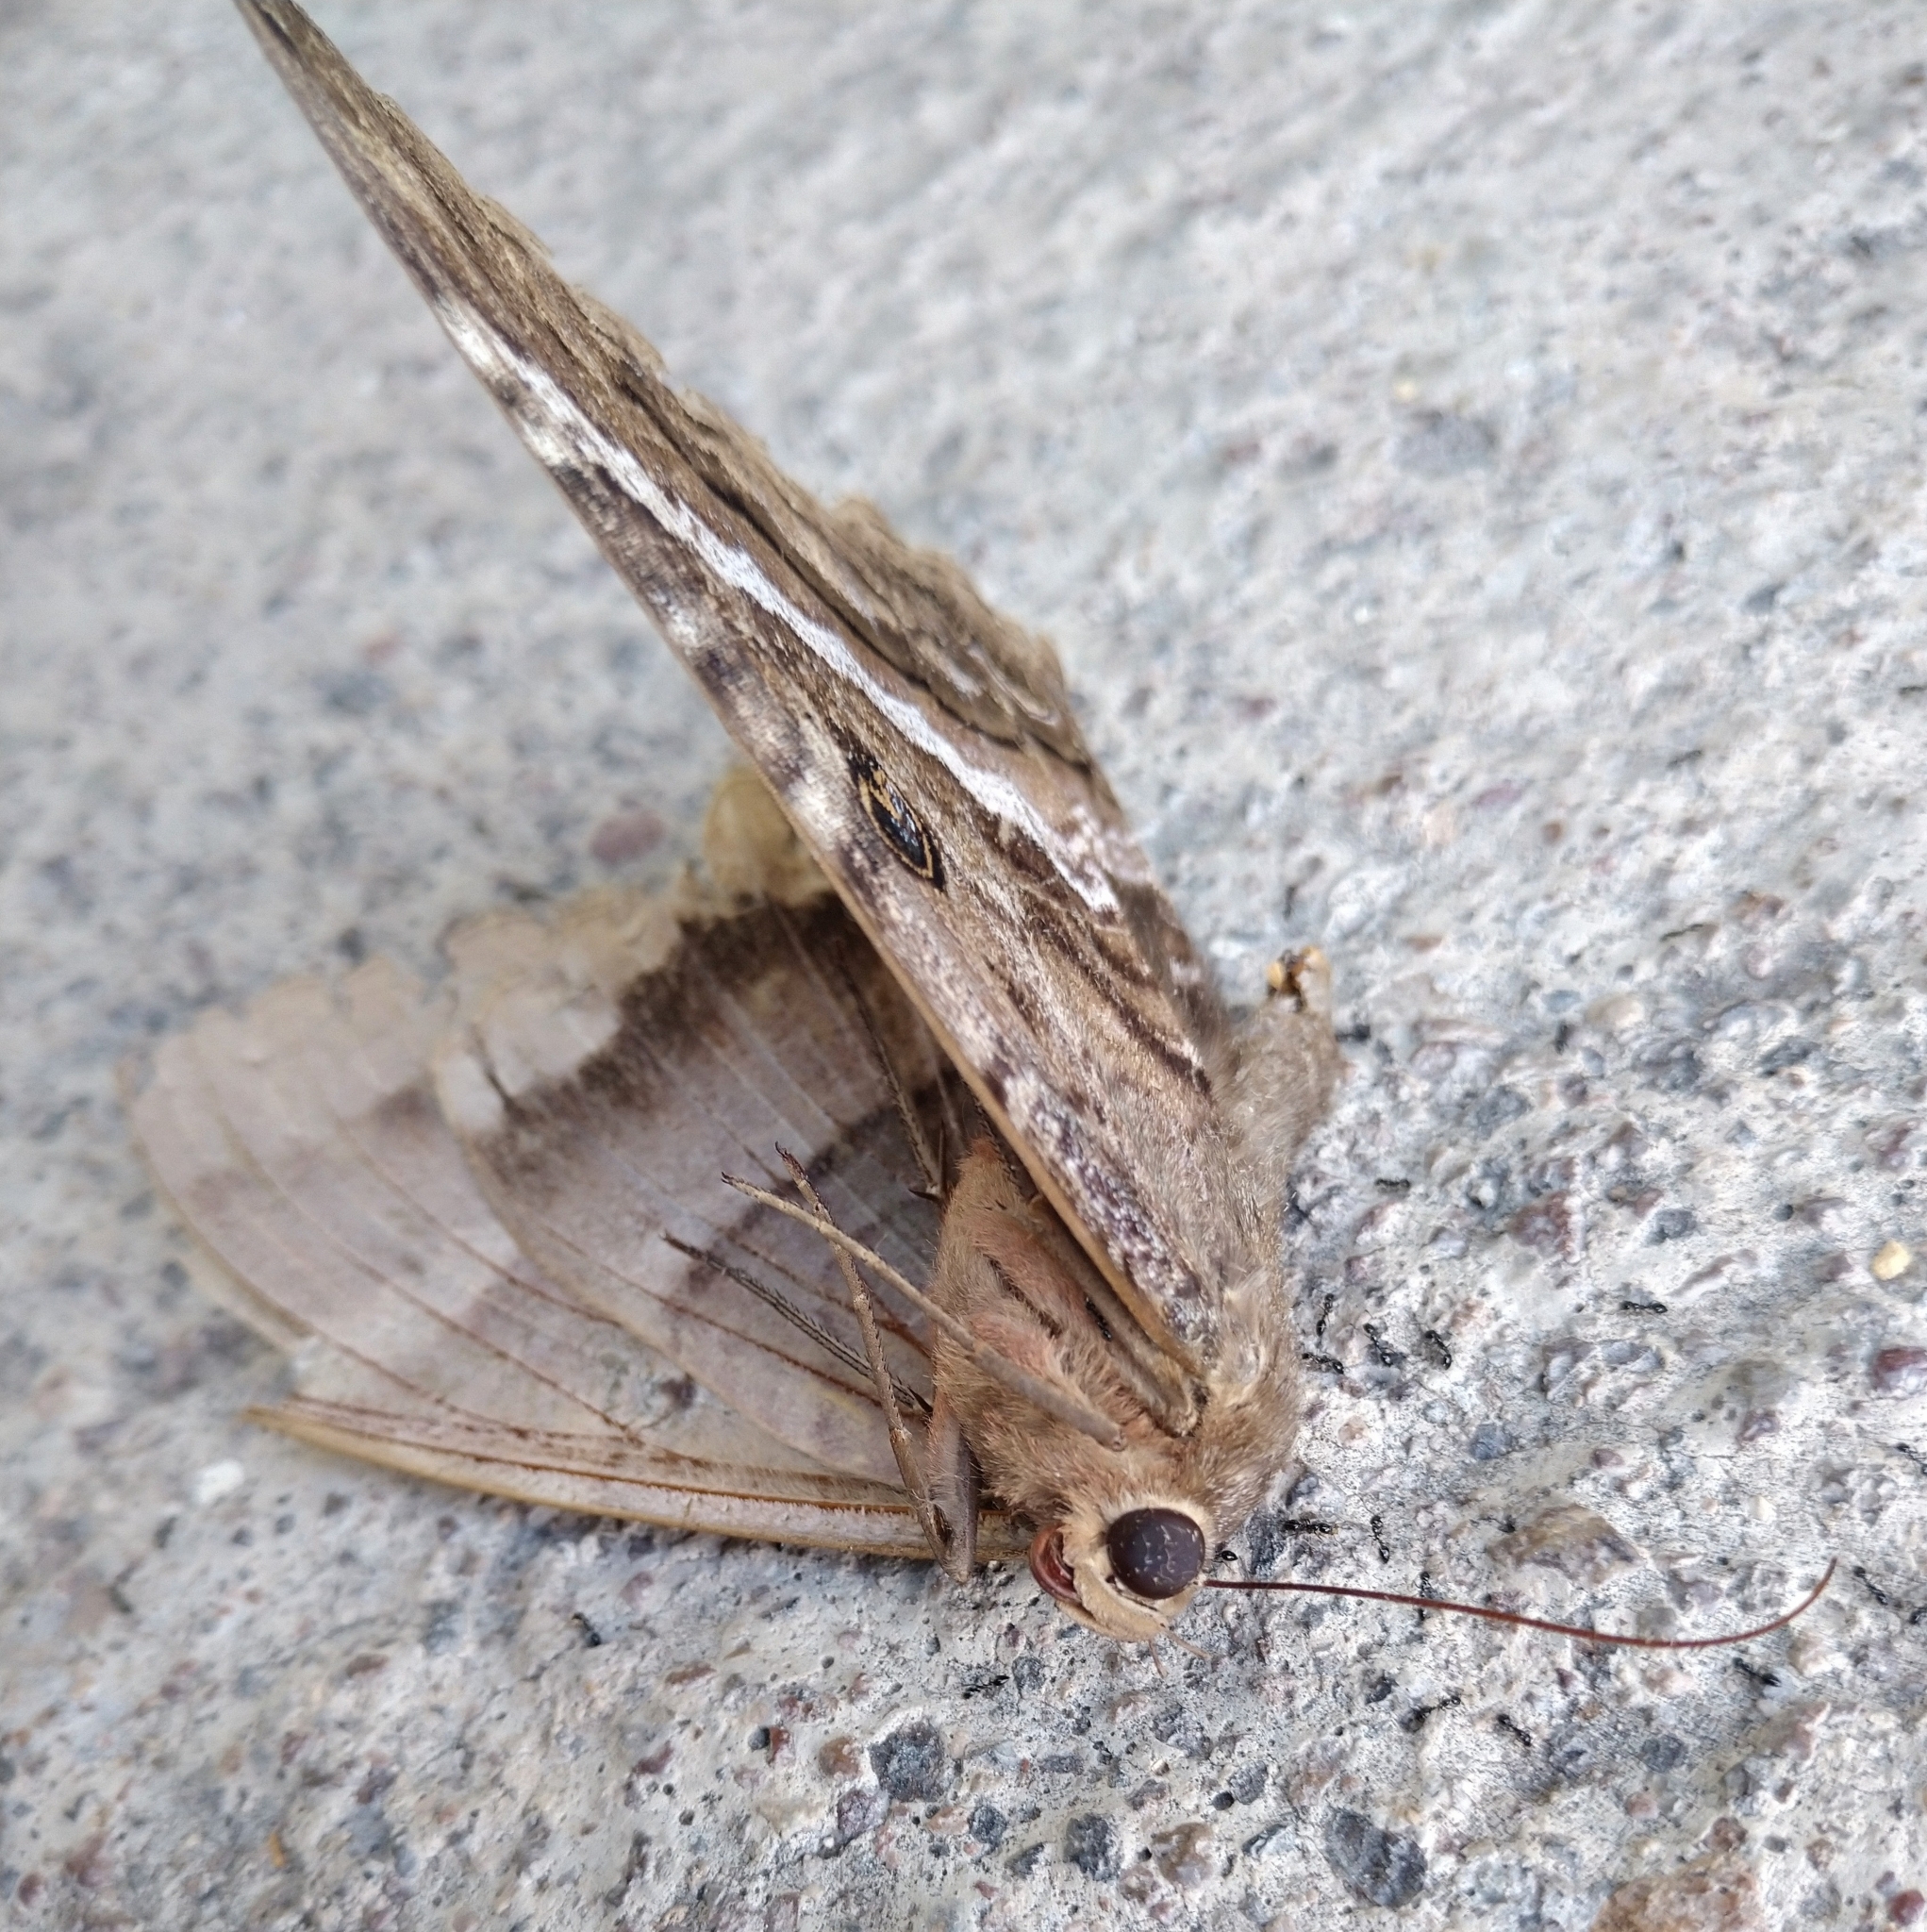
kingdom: Animalia
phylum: Arthropoda
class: Insecta
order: Lepidoptera
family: Erebidae
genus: Ascalapha
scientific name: Ascalapha odorata
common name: Black witch
